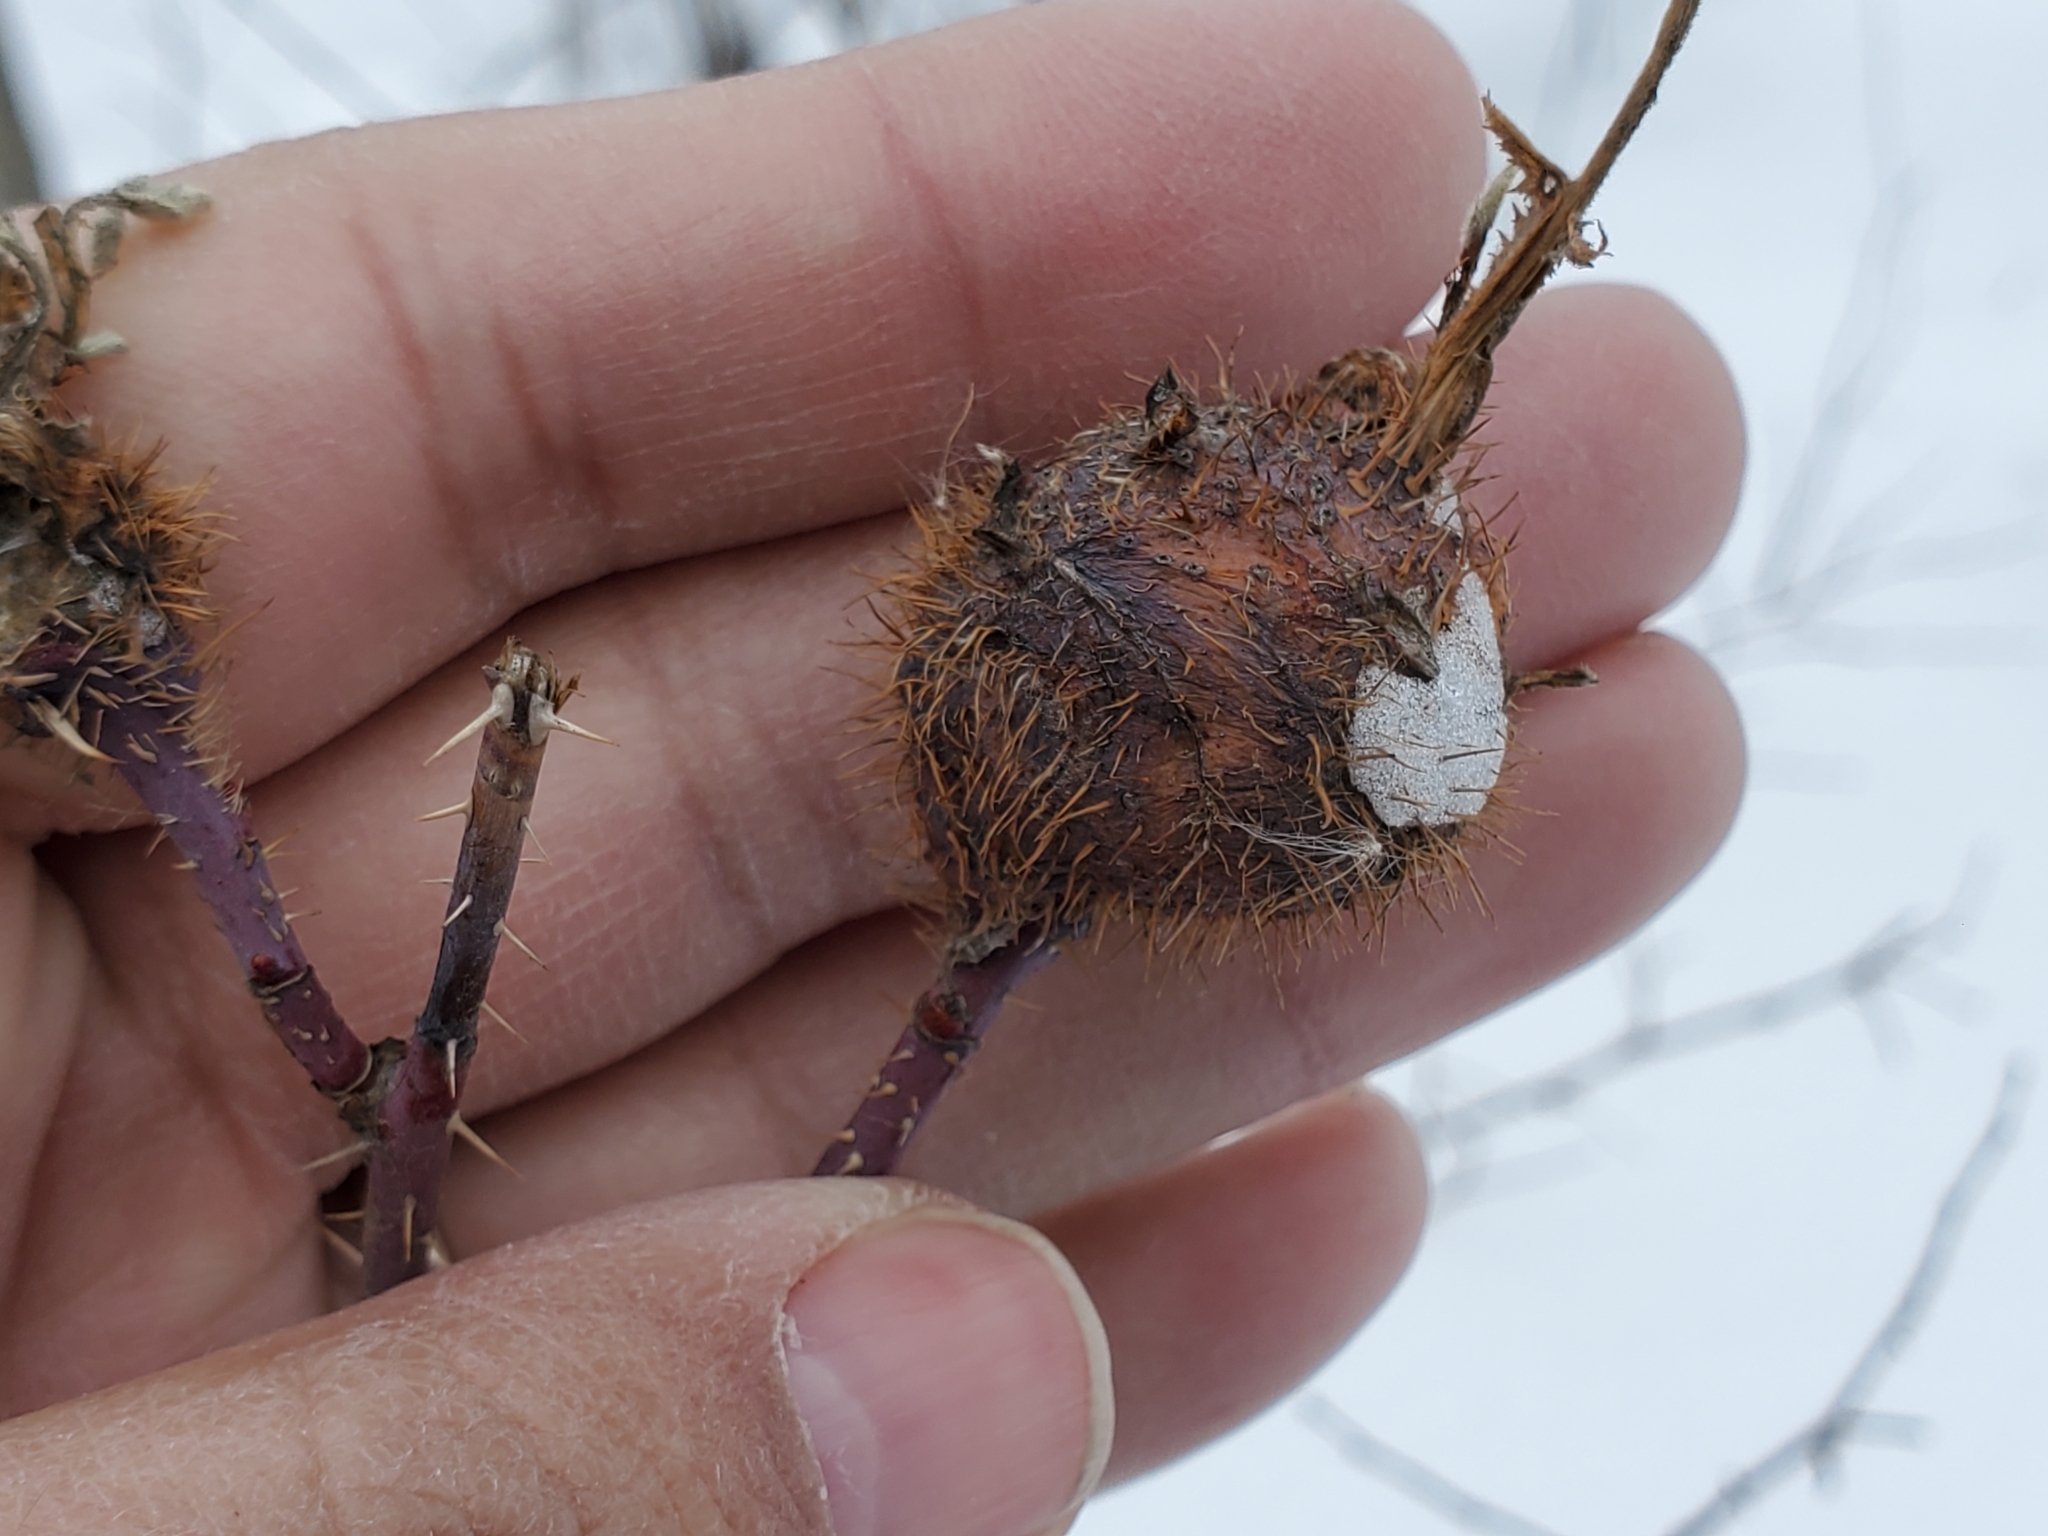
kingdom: Animalia
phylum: Arthropoda
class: Insecta
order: Hymenoptera
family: Cynipidae
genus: Diplolepis
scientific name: Diplolepis spinosa
